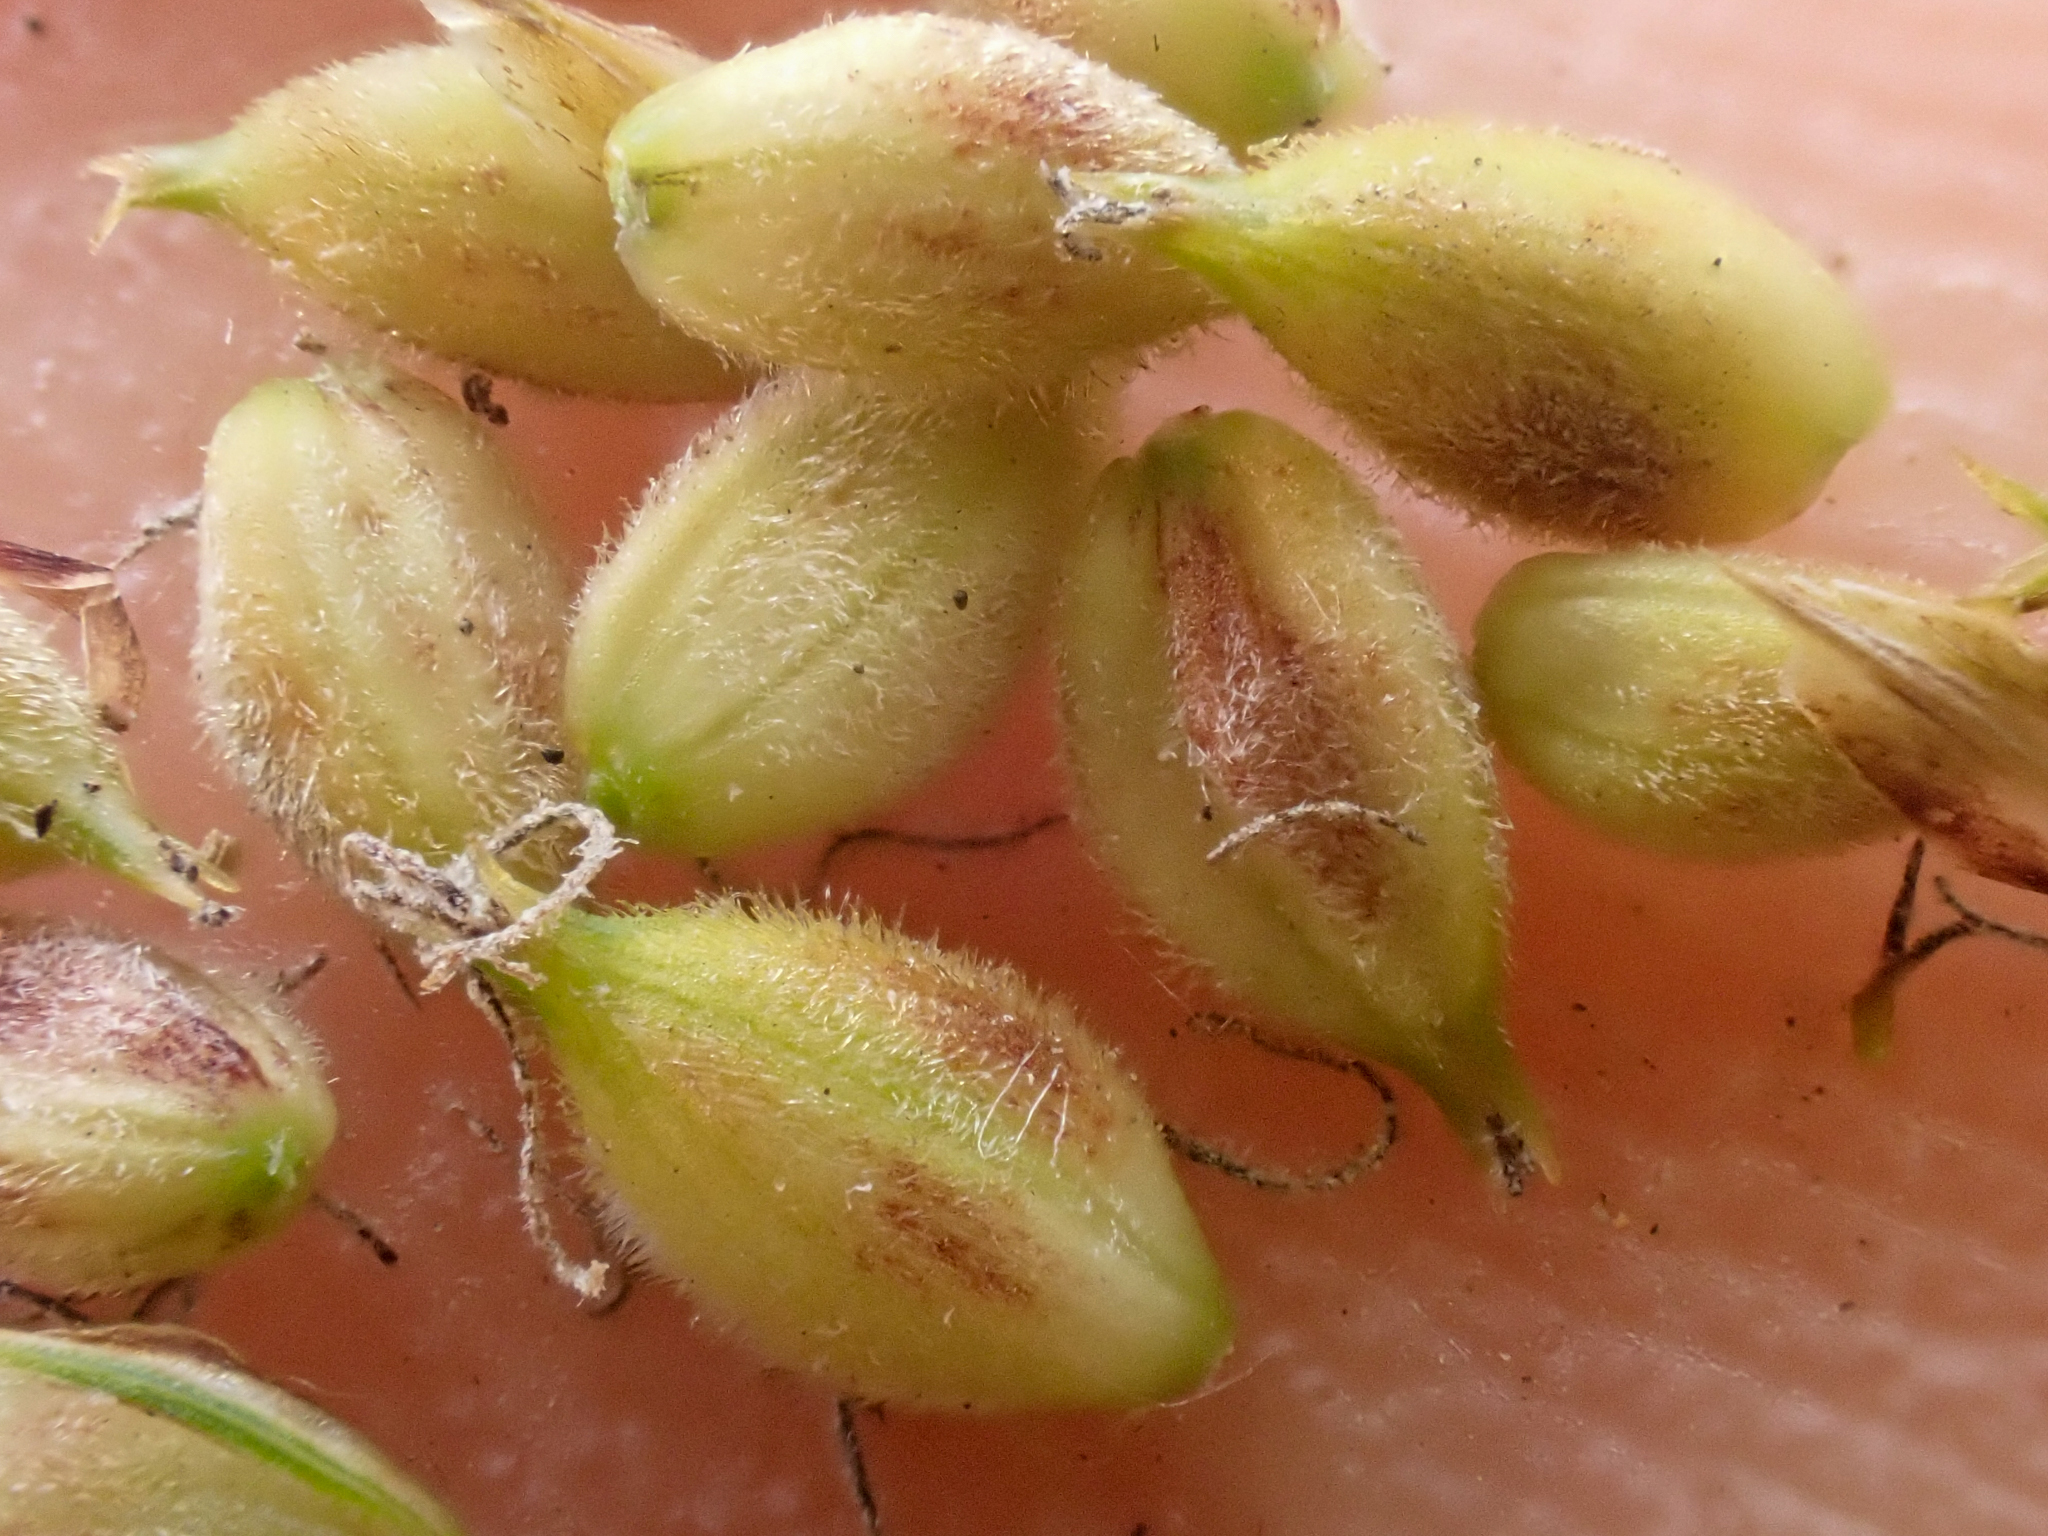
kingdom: Plantae
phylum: Tracheophyta
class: Liliopsida
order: Poales
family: Cyperaceae
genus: Carex
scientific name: Carex pellita
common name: Woolly sedge
